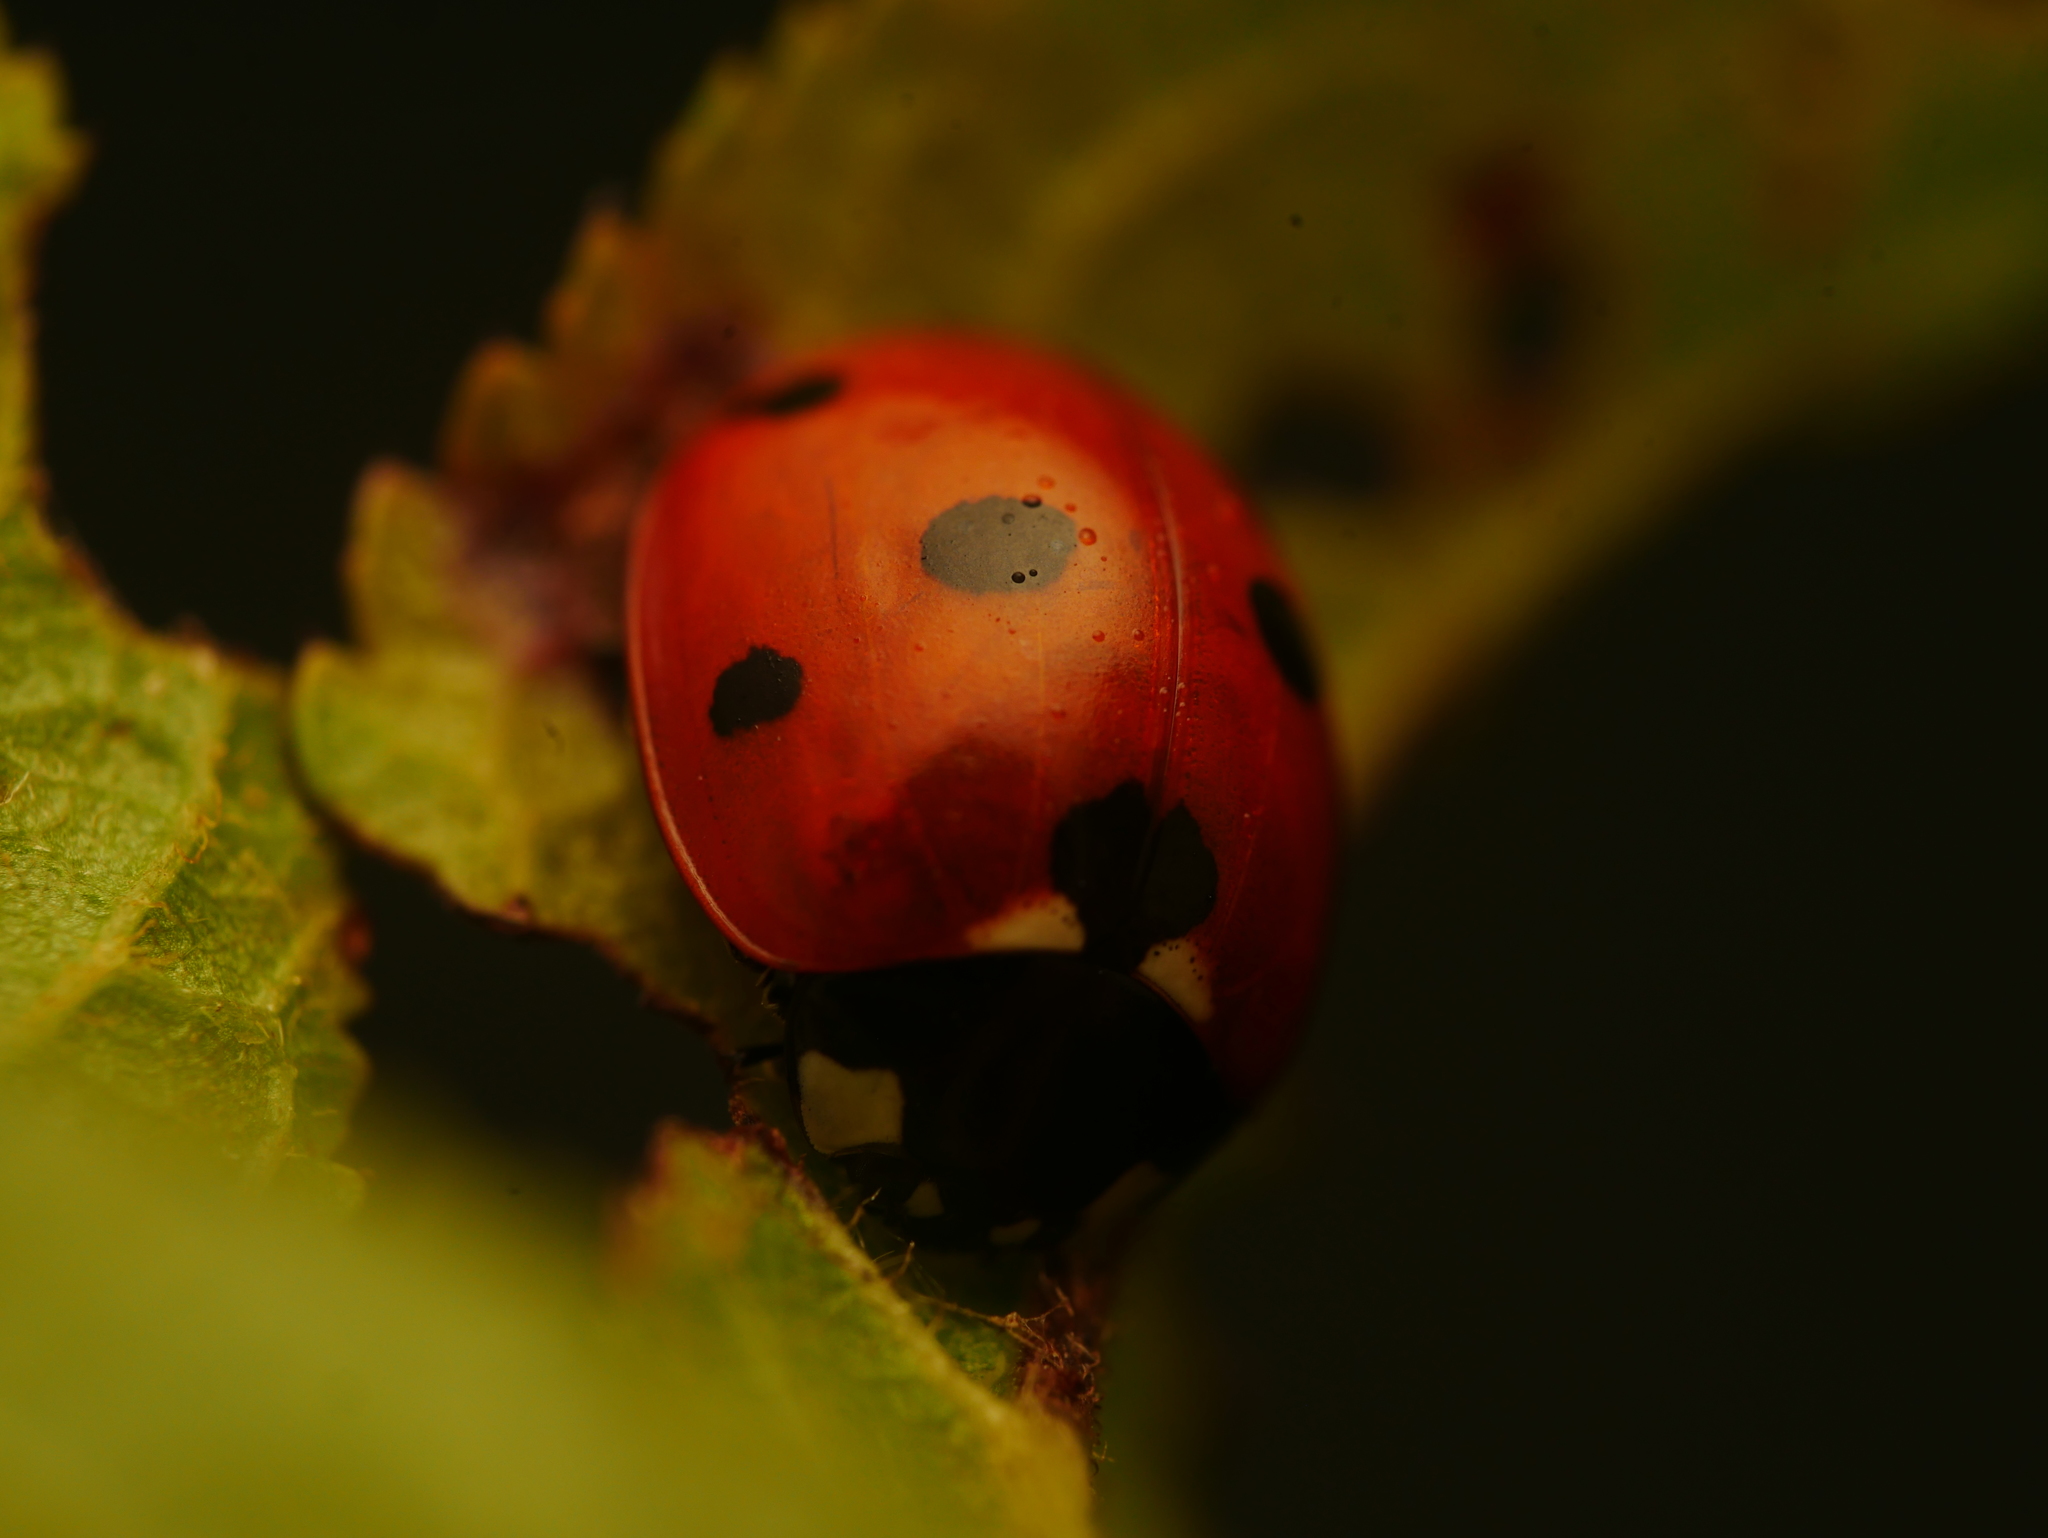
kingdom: Animalia
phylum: Arthropoda
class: Insecta
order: Coleoptera
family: Coccinellidae
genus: Coccinella
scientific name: Coccinella septempunctata
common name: Sevenspotted lady beetle
